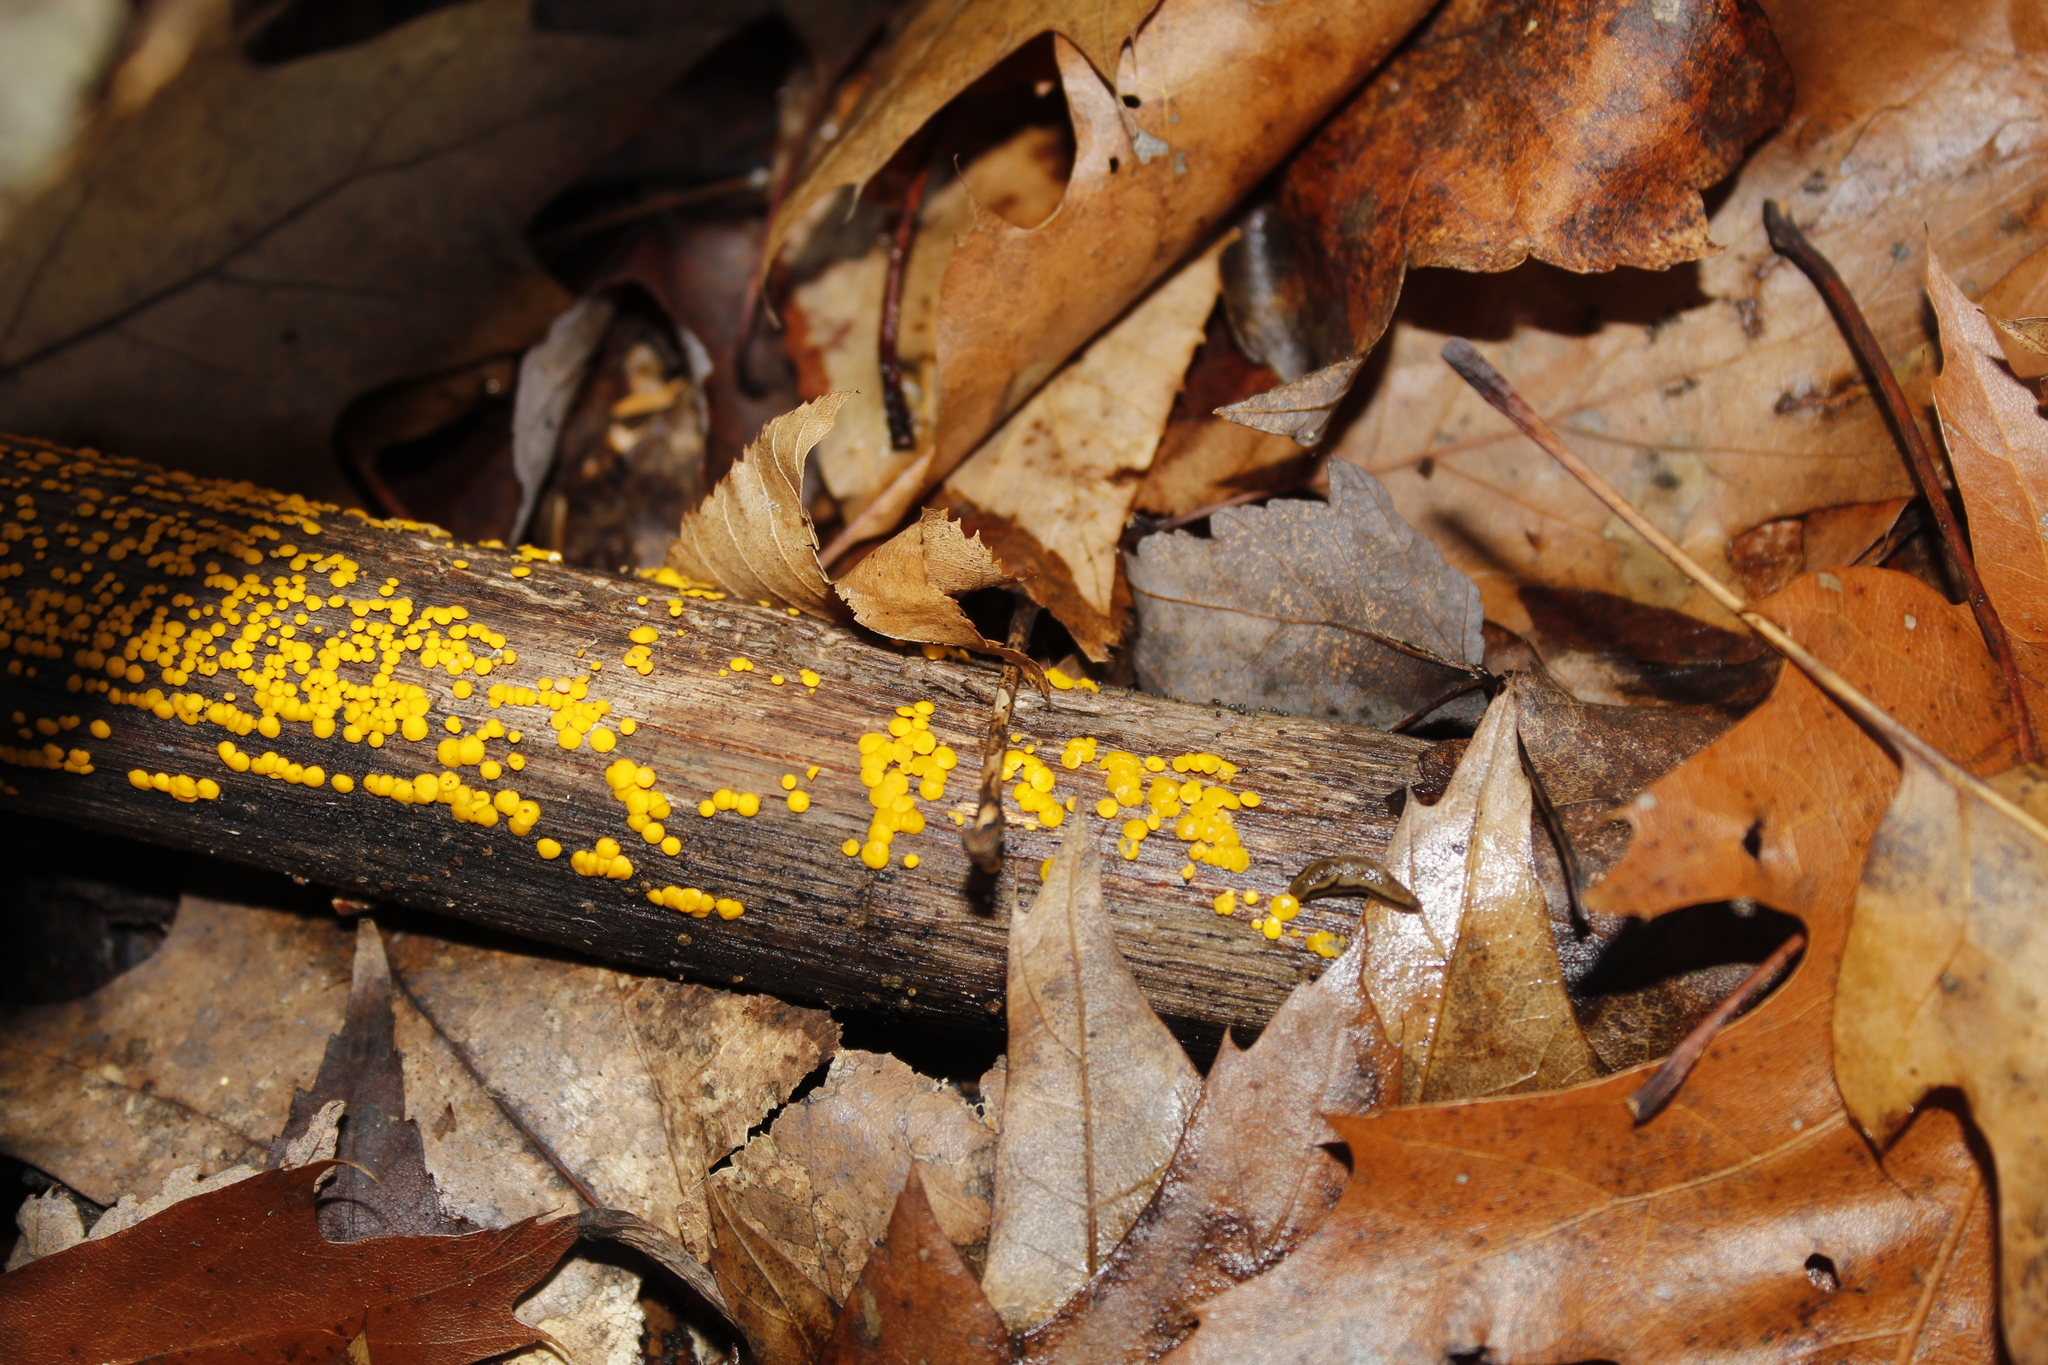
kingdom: Fungi
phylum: Ascomycota
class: Leotiomycetes
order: Helotiales
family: Pezizellaceae
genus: Calycina
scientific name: Calycina citrina
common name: Yellow fairy cups
